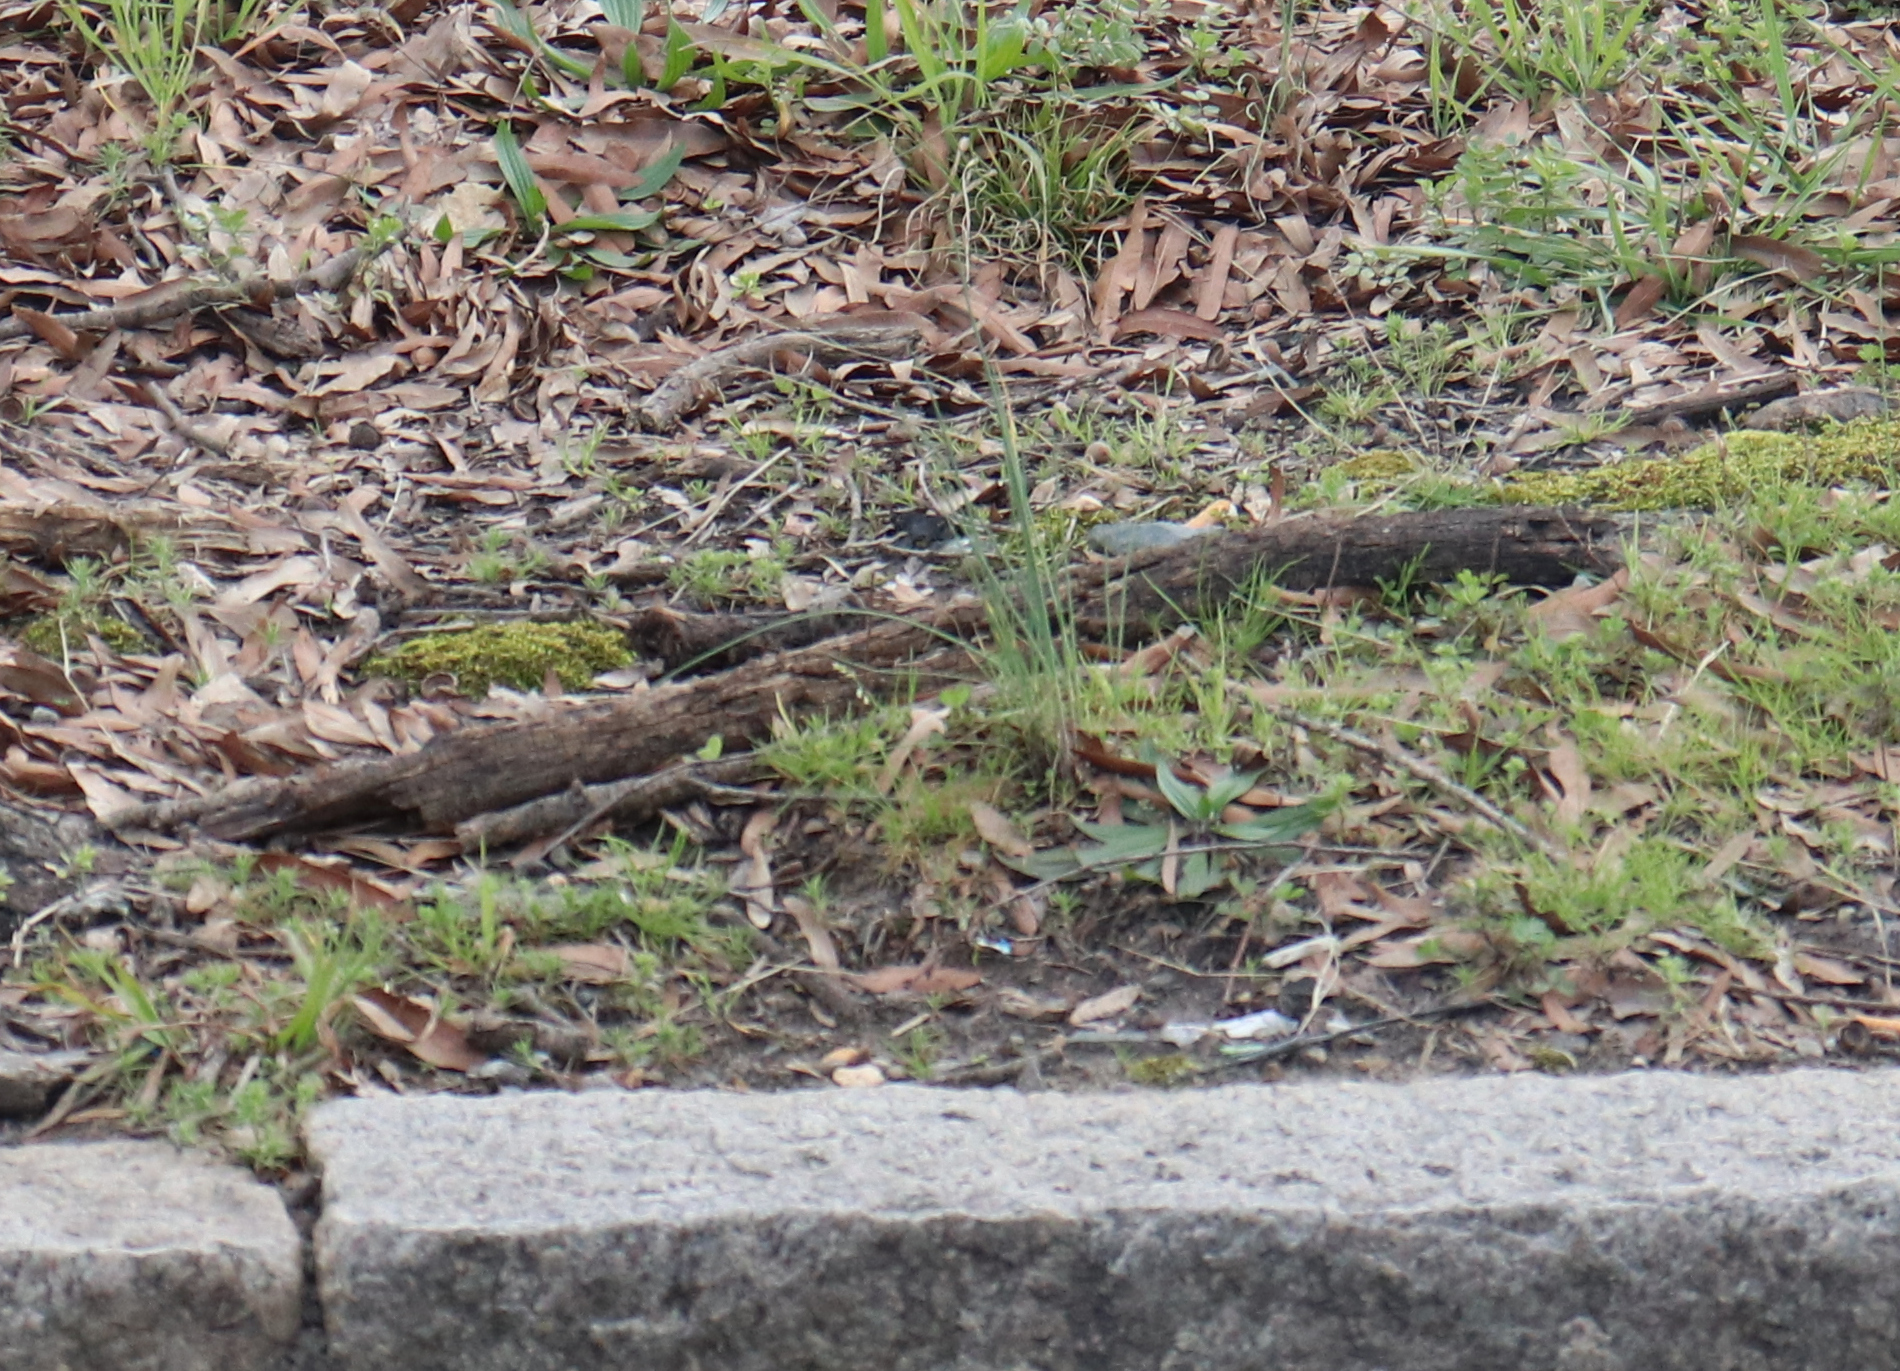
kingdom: Plantae
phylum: Tracheophyta
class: Liliopsida
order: Asparagales
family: Amaryllidaceae
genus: Allium
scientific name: Allium vineale
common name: Crow garlic
